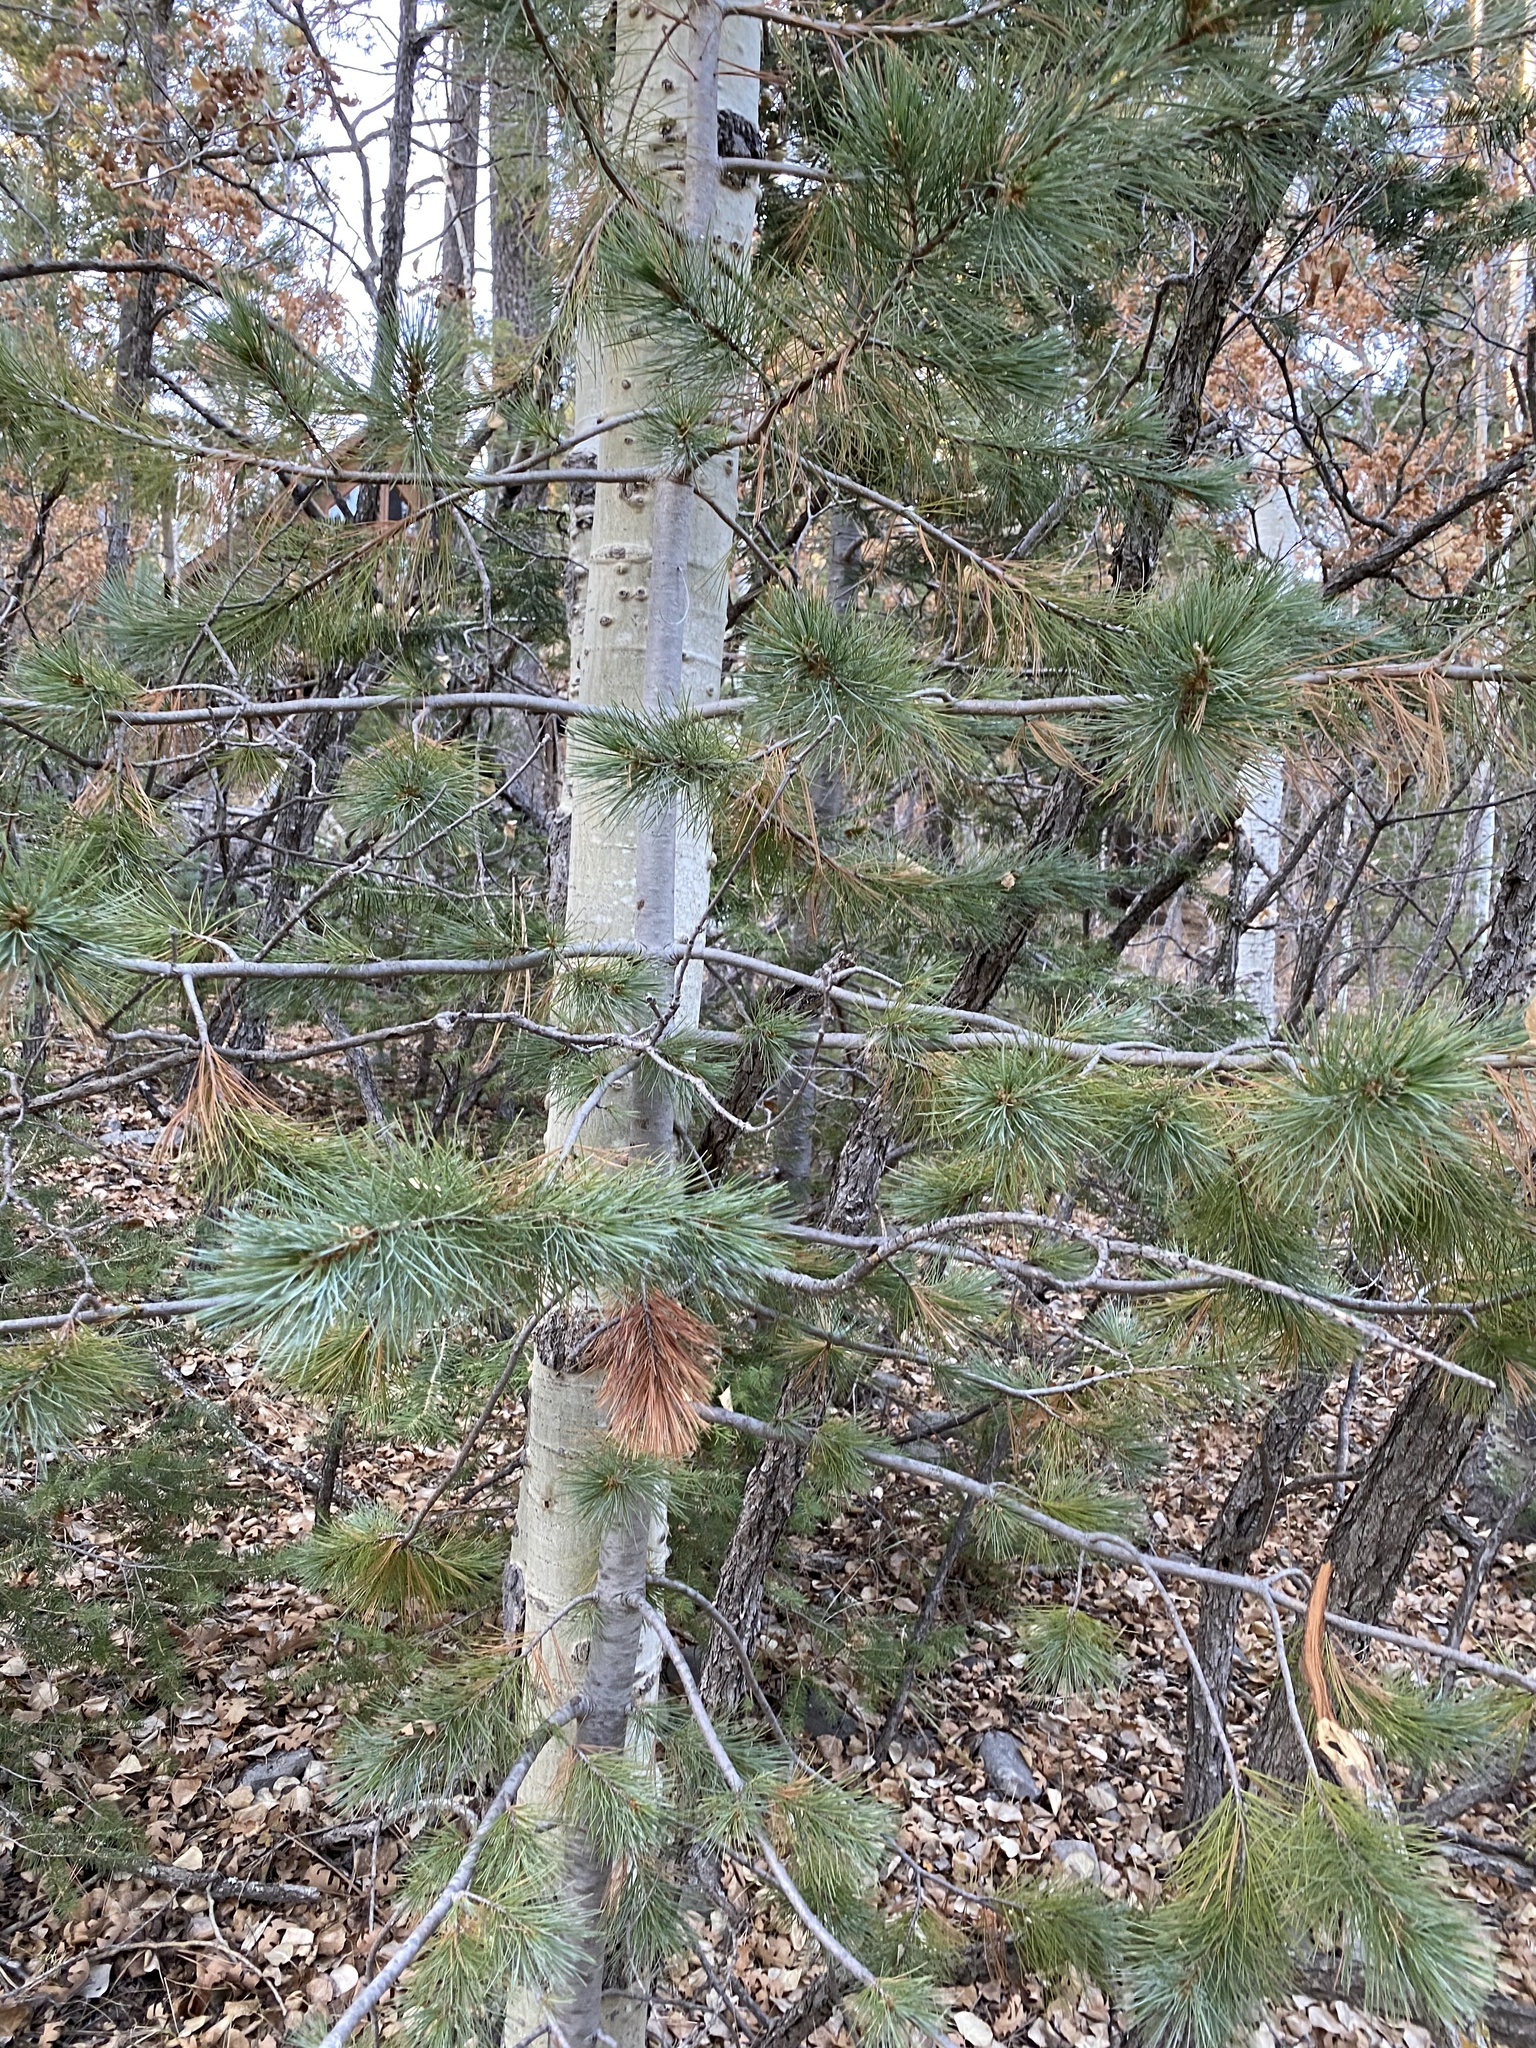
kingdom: Plantae
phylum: Tracheophyta
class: Pinopsida
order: Pinales
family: Pinaceae
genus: Pinus
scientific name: Pinus strobiformis
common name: Southwestern white pine
